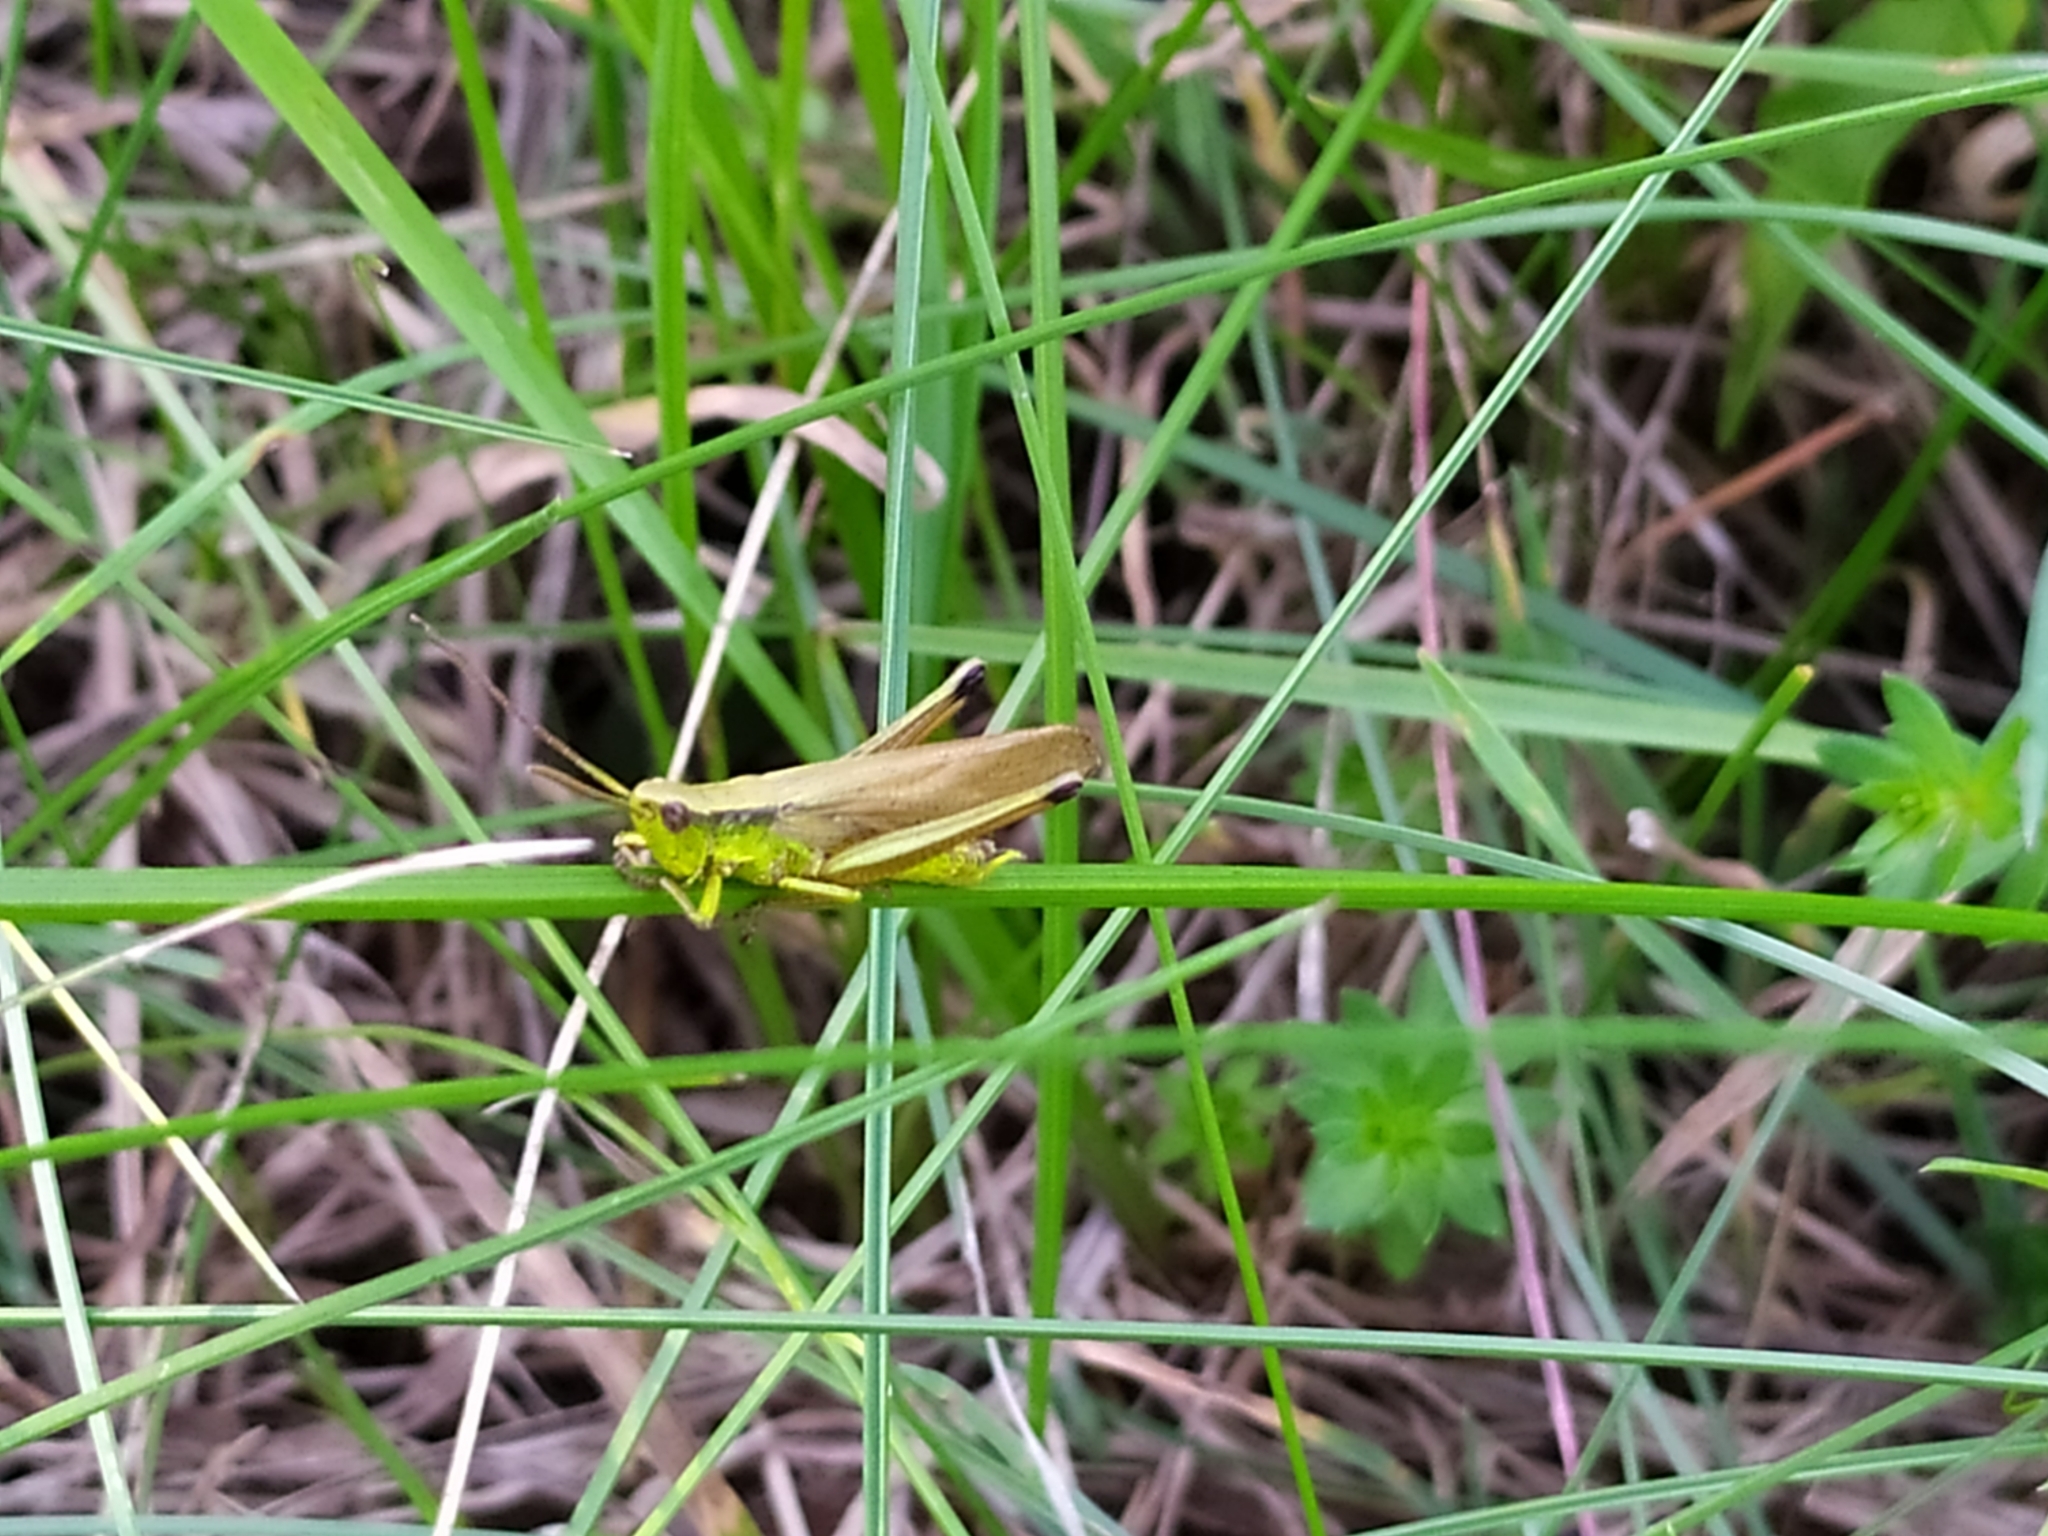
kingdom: Animalia
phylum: Arthropoda
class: Insecta
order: Orthoptera
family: Acrididae
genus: Chrysochraon
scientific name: Chrysochraon dispar
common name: Large gold grasshopper
